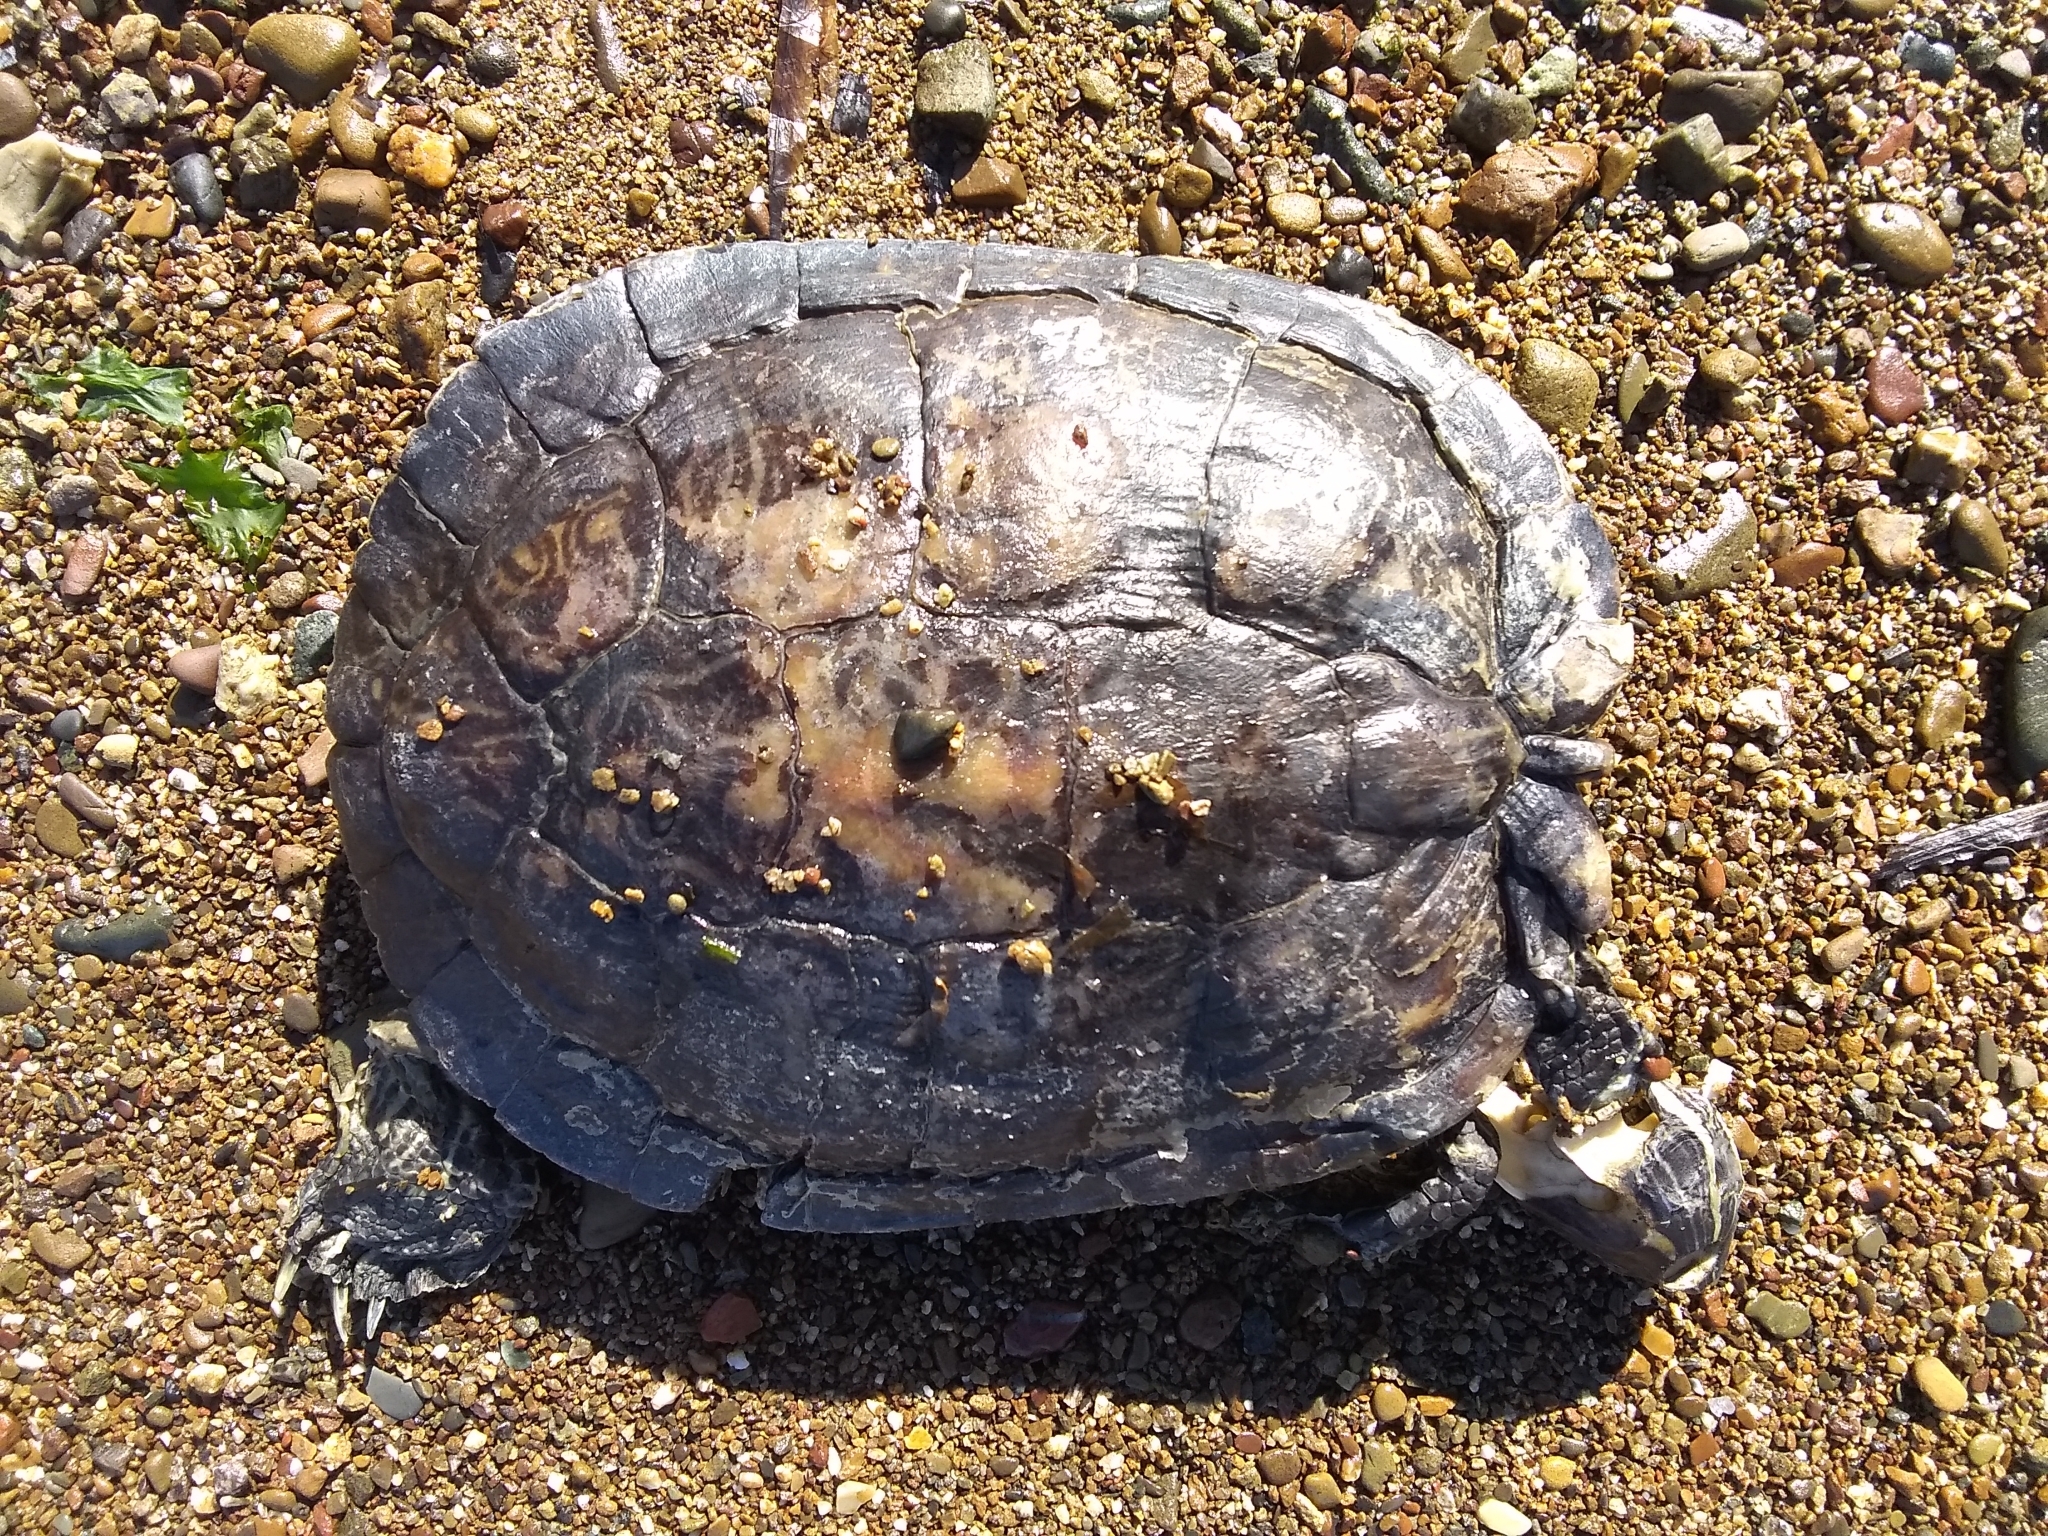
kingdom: Animalia
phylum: Chordata
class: Testudines
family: Emydidae
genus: Trachemys
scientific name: Trachemys scripta
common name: Slider
